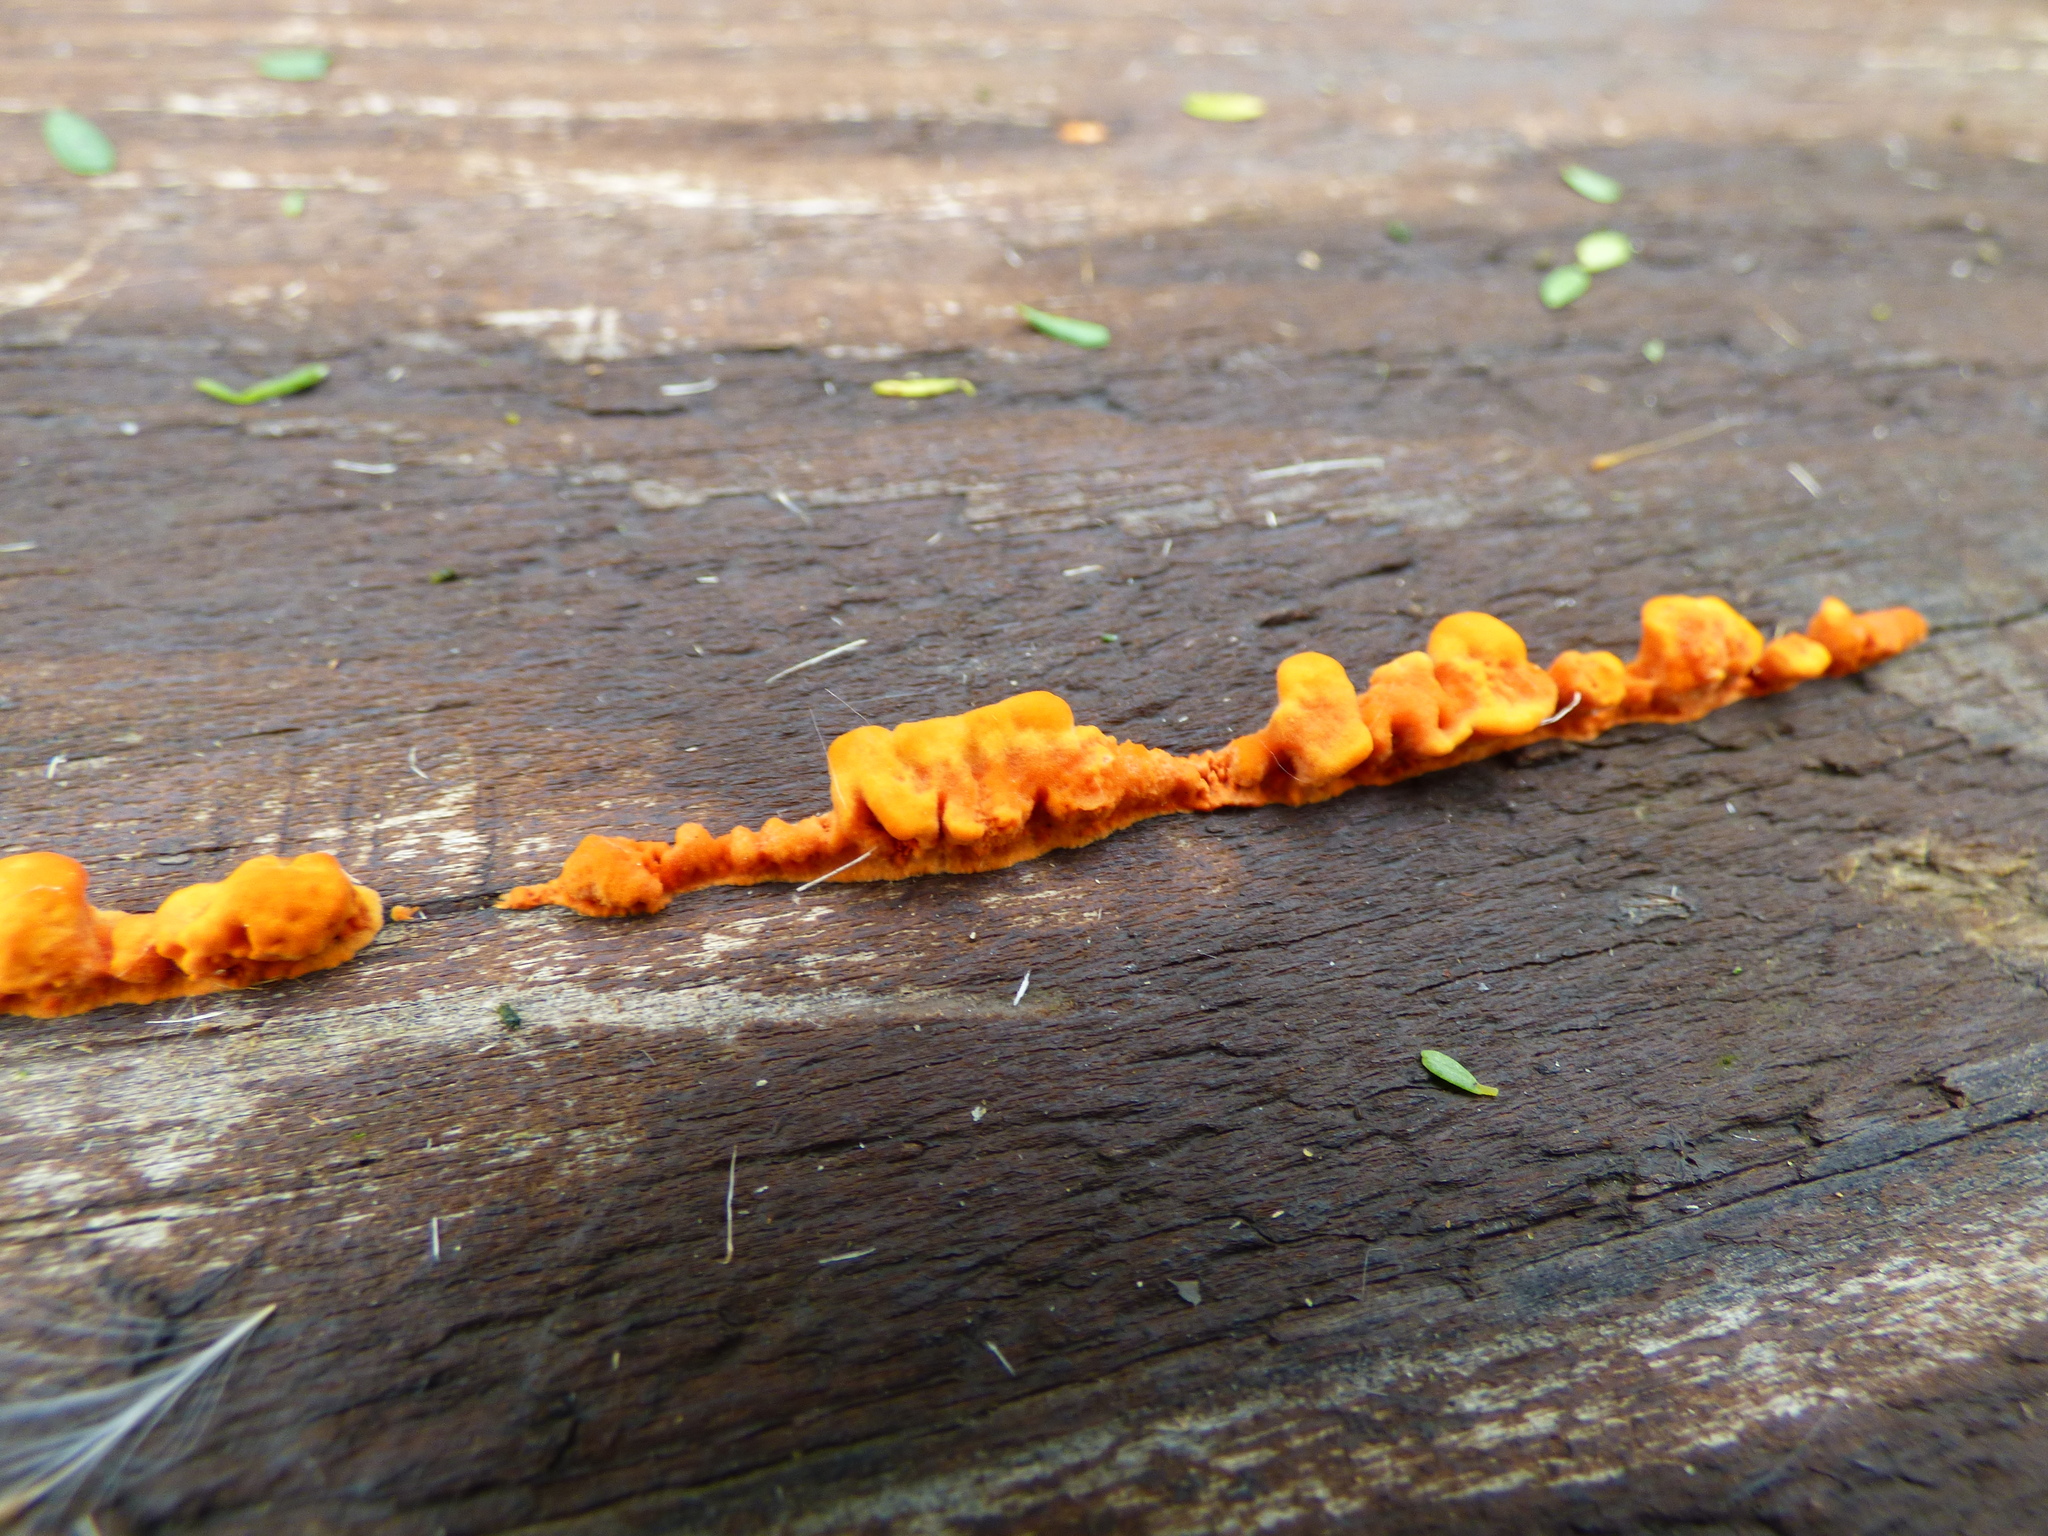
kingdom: Fungi
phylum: Basidiomycota
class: Agaricomycetes
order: Polyporales
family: Polyporaceae
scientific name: Polyporaceae
